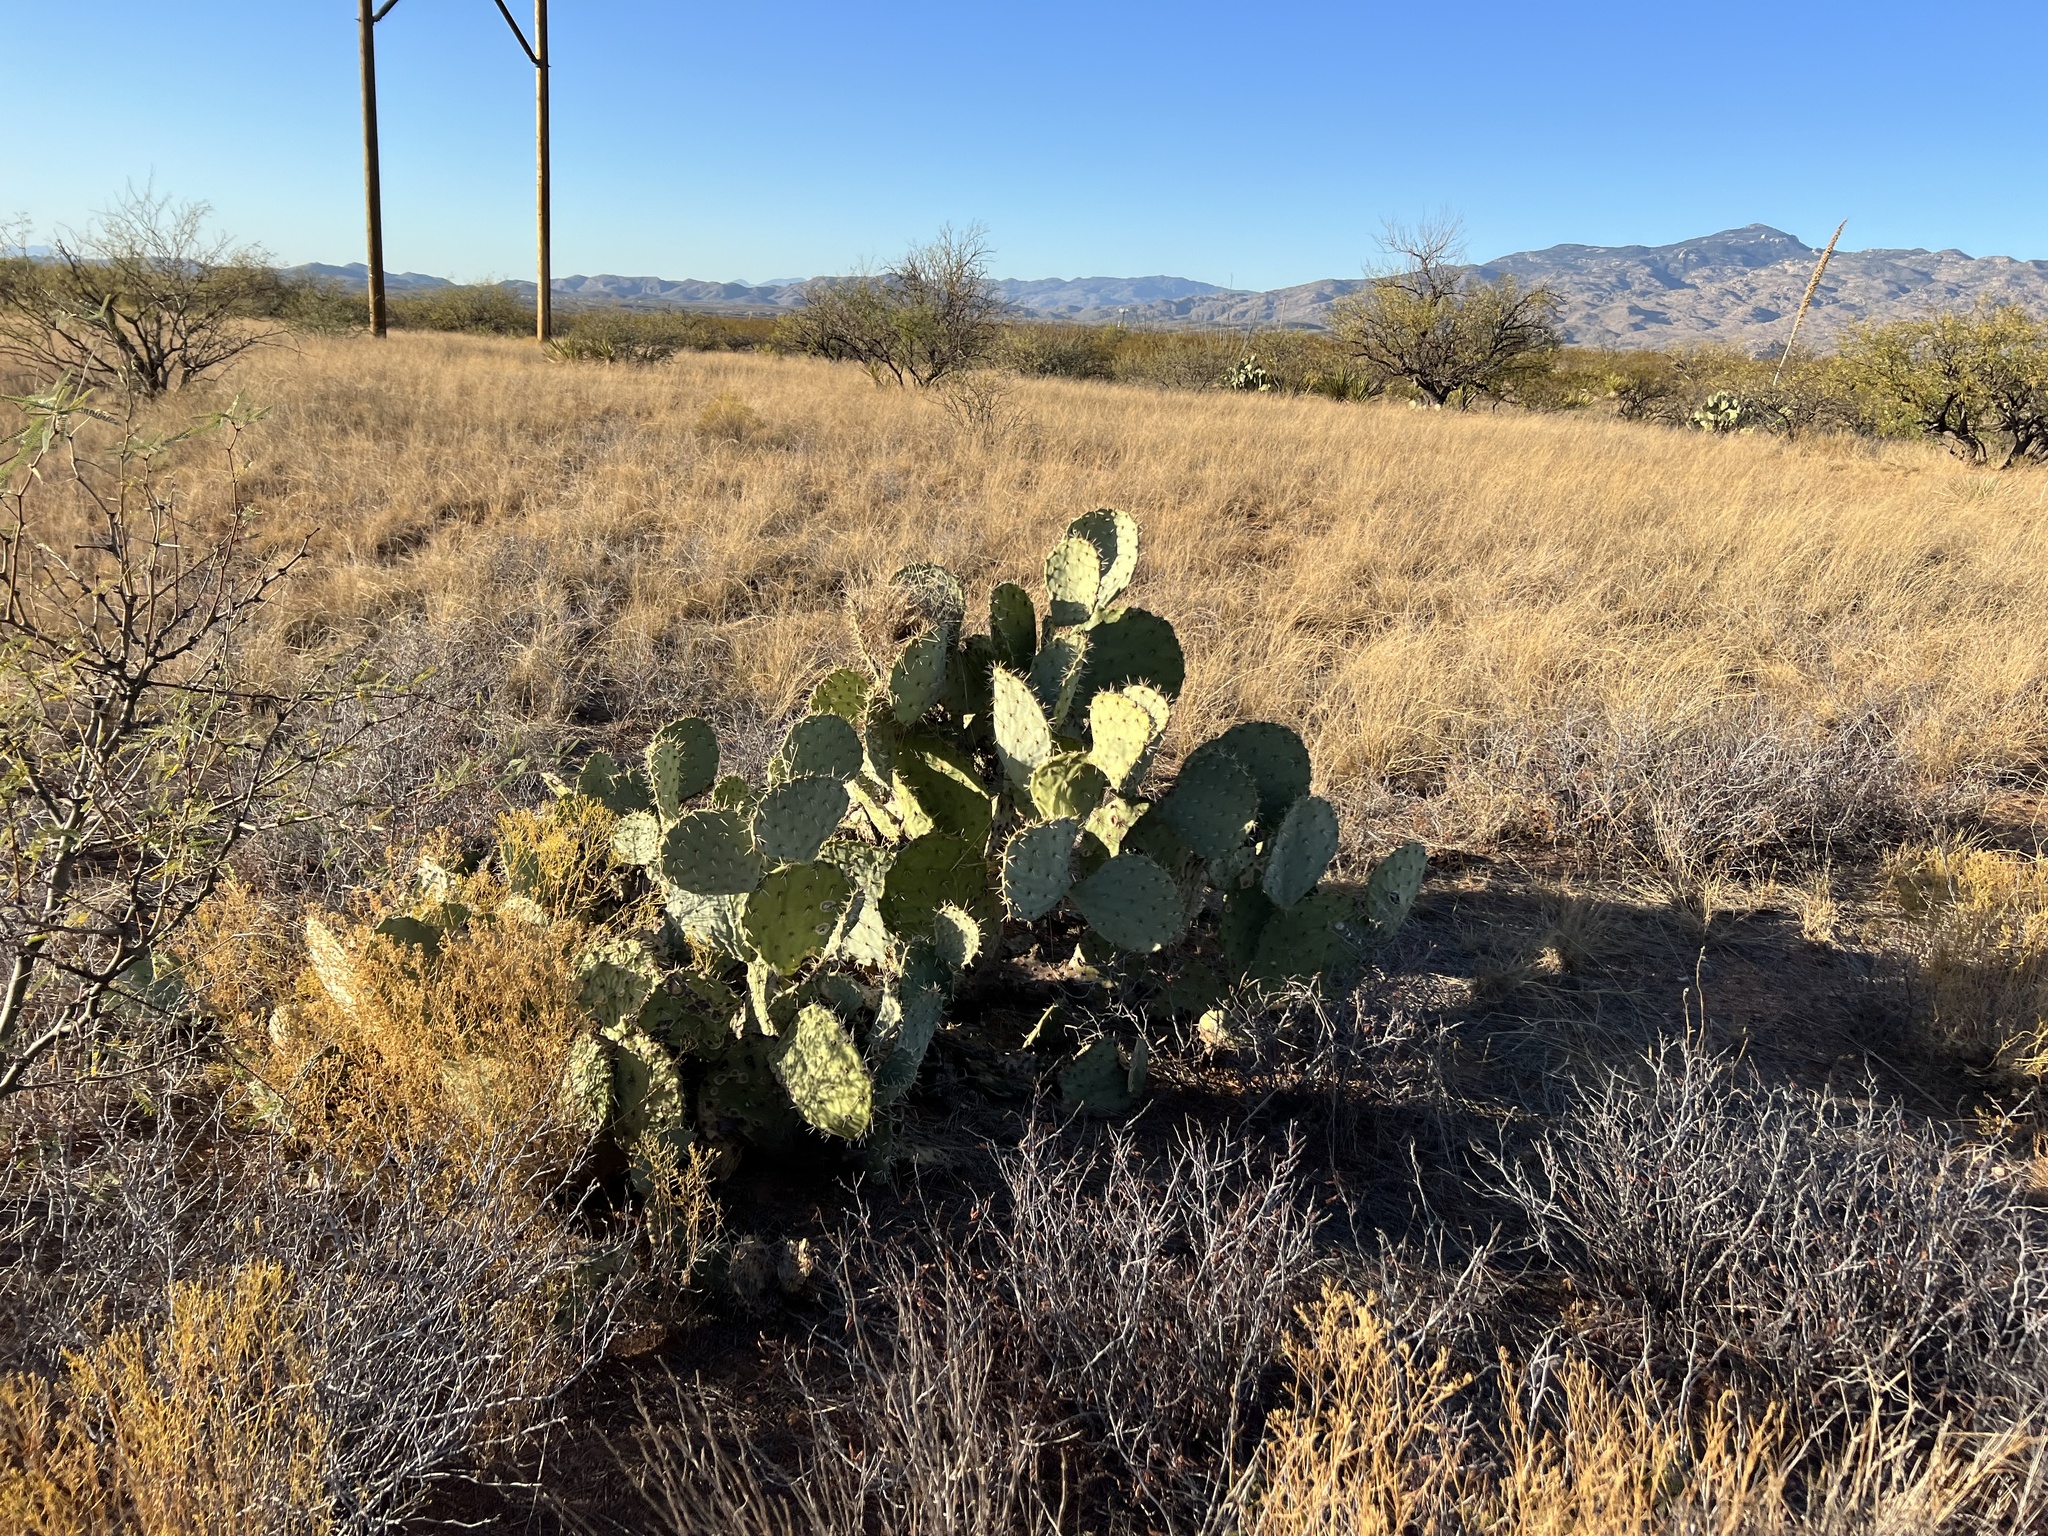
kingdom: Plantae
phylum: Tracheophyta
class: Magnoliopsida
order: Caryophyllales
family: Cactaceae
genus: Opuntia
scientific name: Opuntia engelmannii
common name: Cactus-apple
